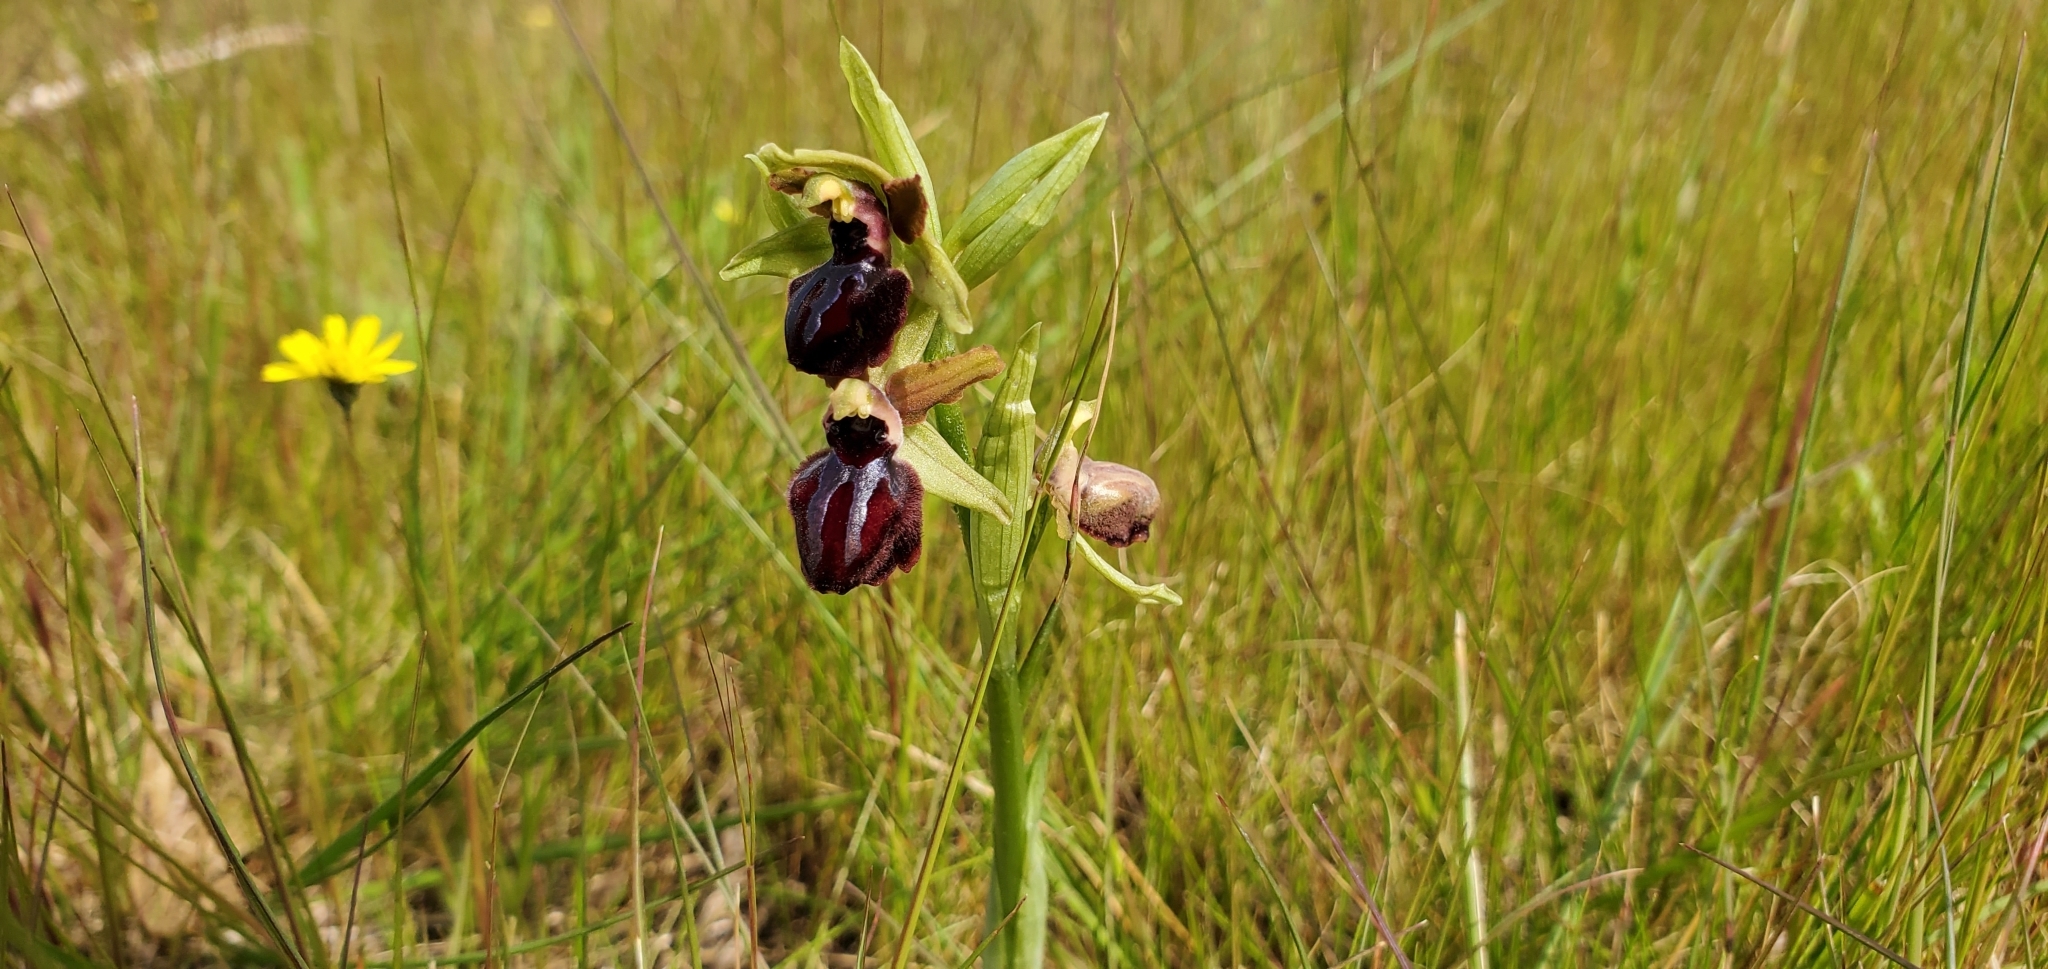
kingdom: Plantae
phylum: Tracheophyta
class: Liliopsida
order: Asparagales
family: Orchidaceae
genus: Ophrys
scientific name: Ophrys sphegodes
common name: Early spider-orchid
